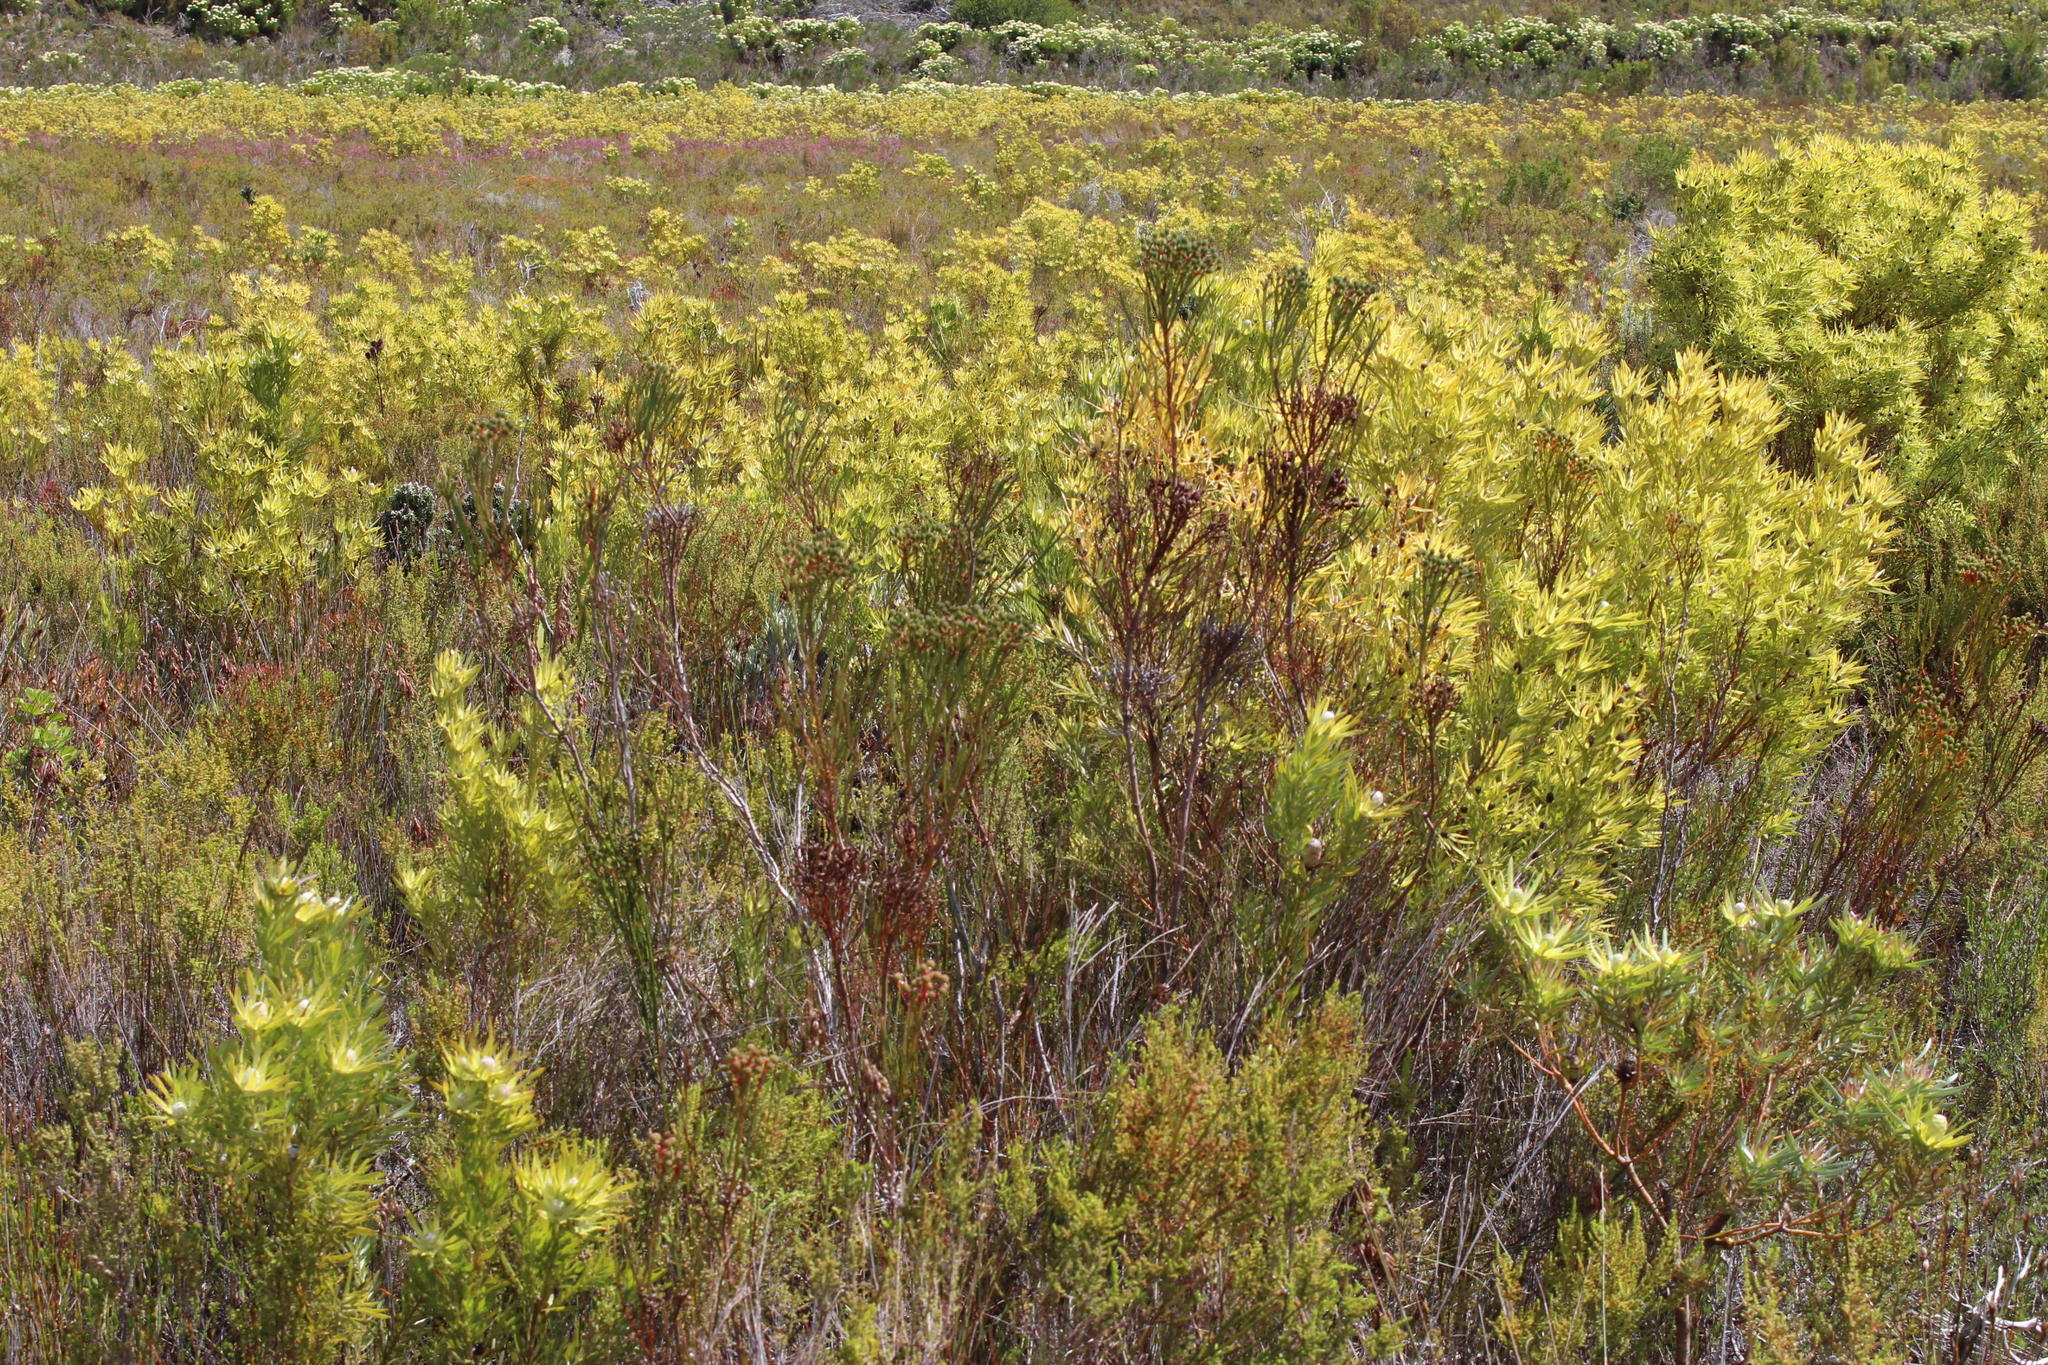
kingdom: Plantae
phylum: Tracheophyta
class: Magnoliopsida
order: Proteales
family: Proteaceae
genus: Leucadendron
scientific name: Leucadendron xanthoconus
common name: Sickle-leaf conebush
